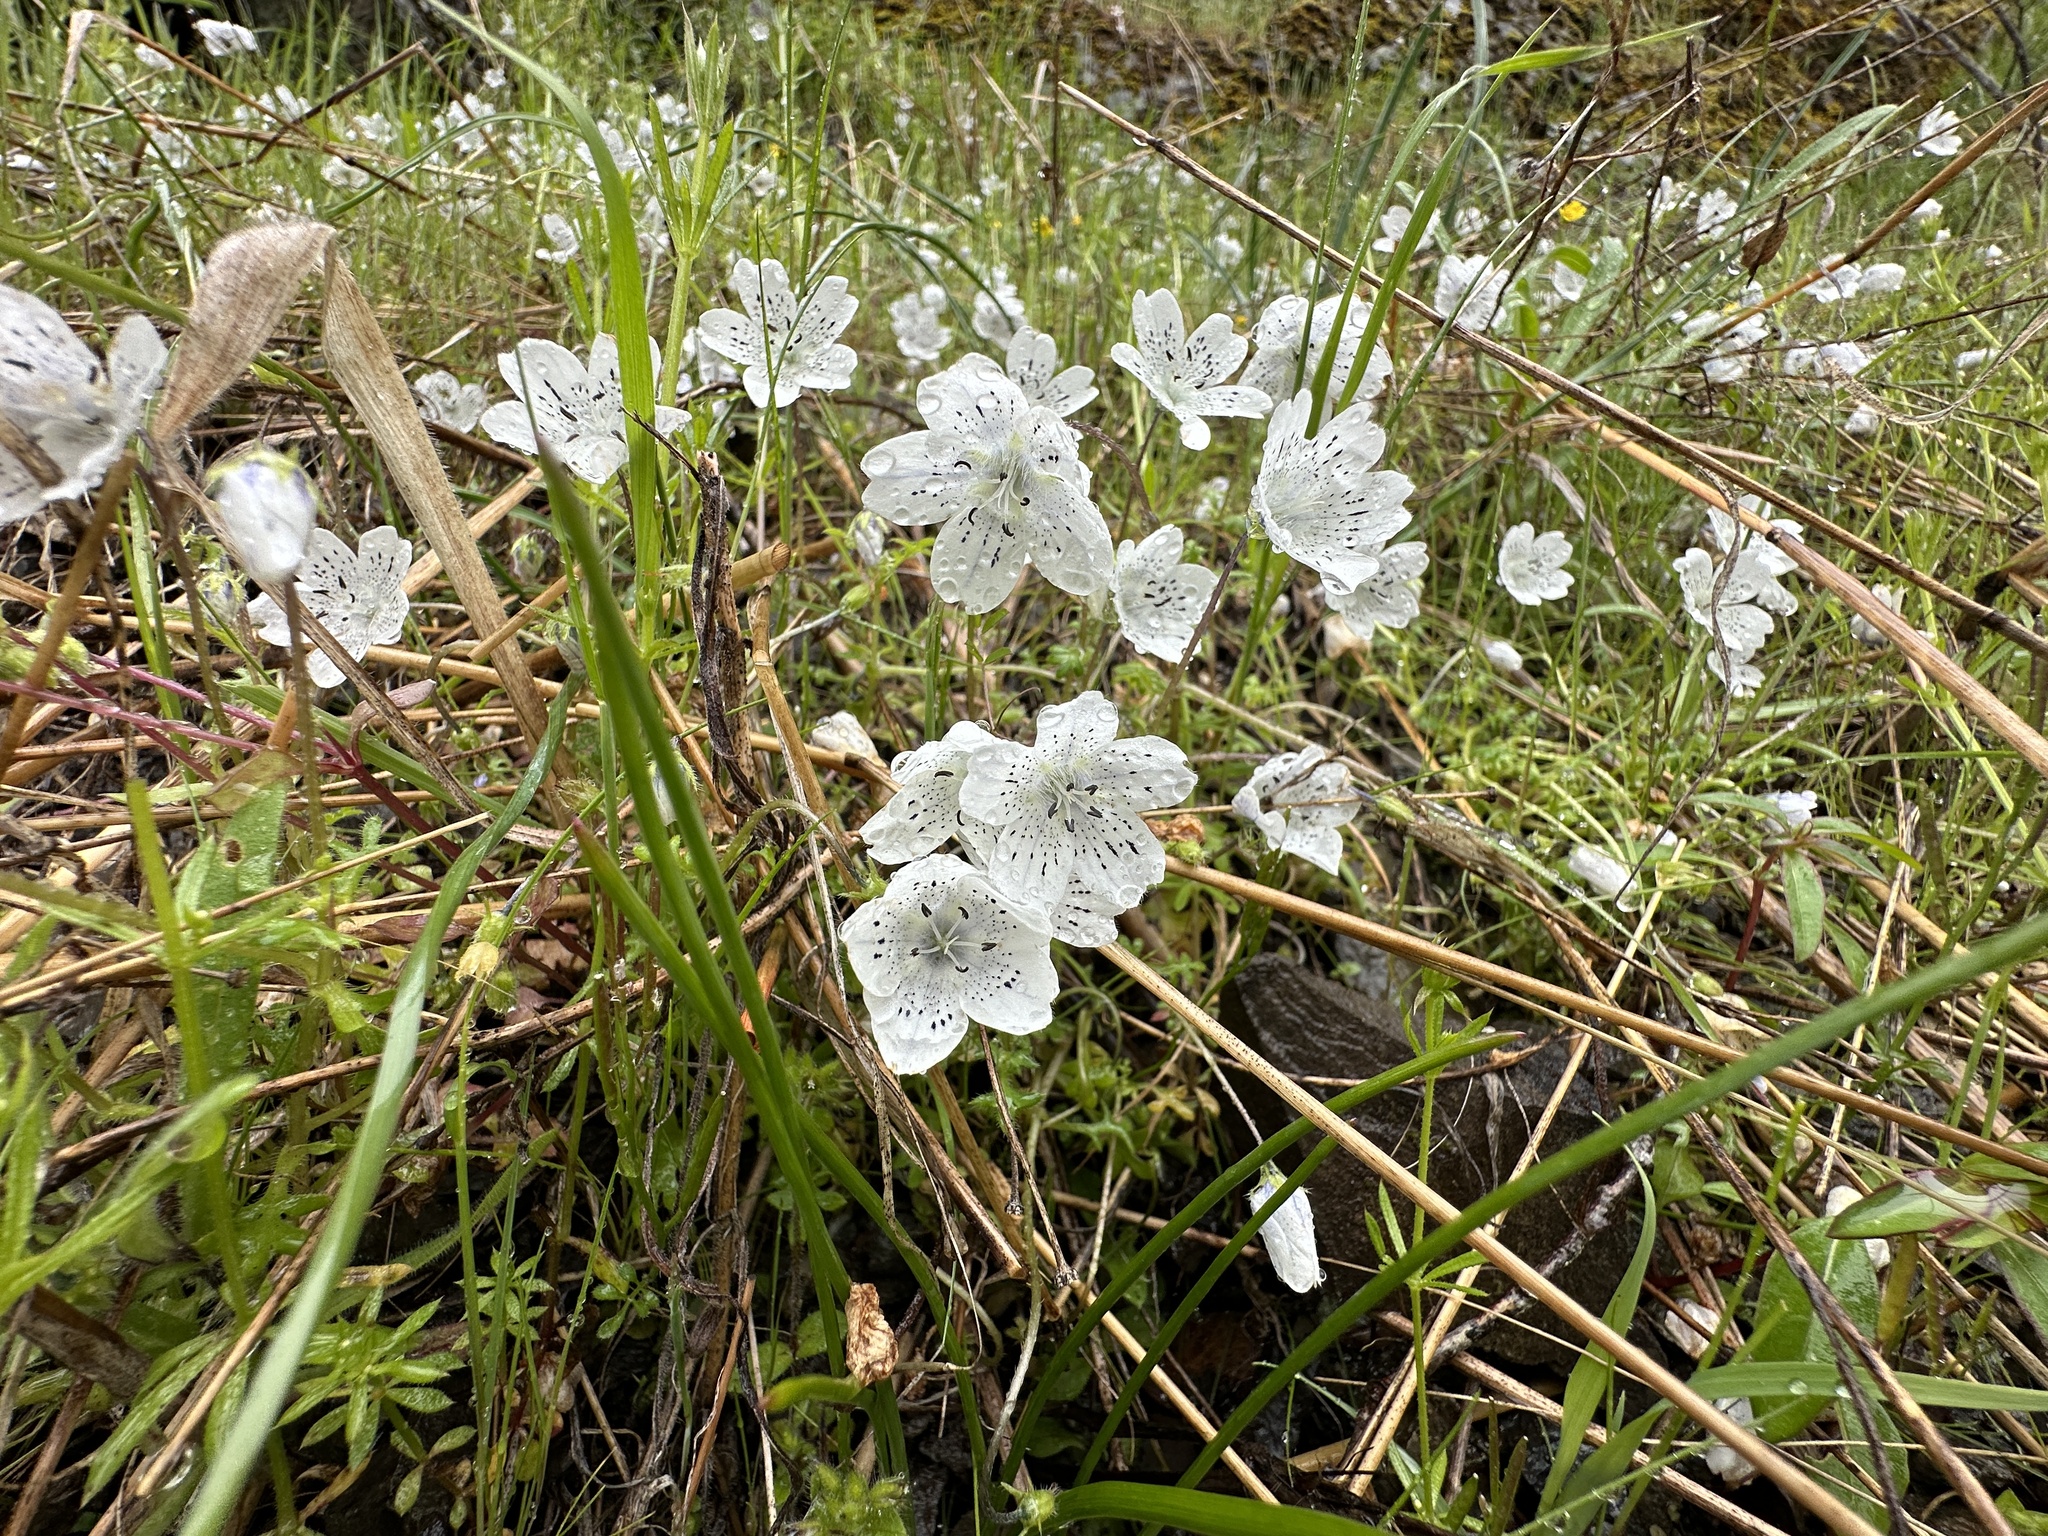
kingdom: Plantae
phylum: Tracheophyta
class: Magnoliopsida
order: Boraginales
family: Hydrophyllaceae
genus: Nemophila
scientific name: Nemophila menziesii
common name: Baby's-blue-eyes
